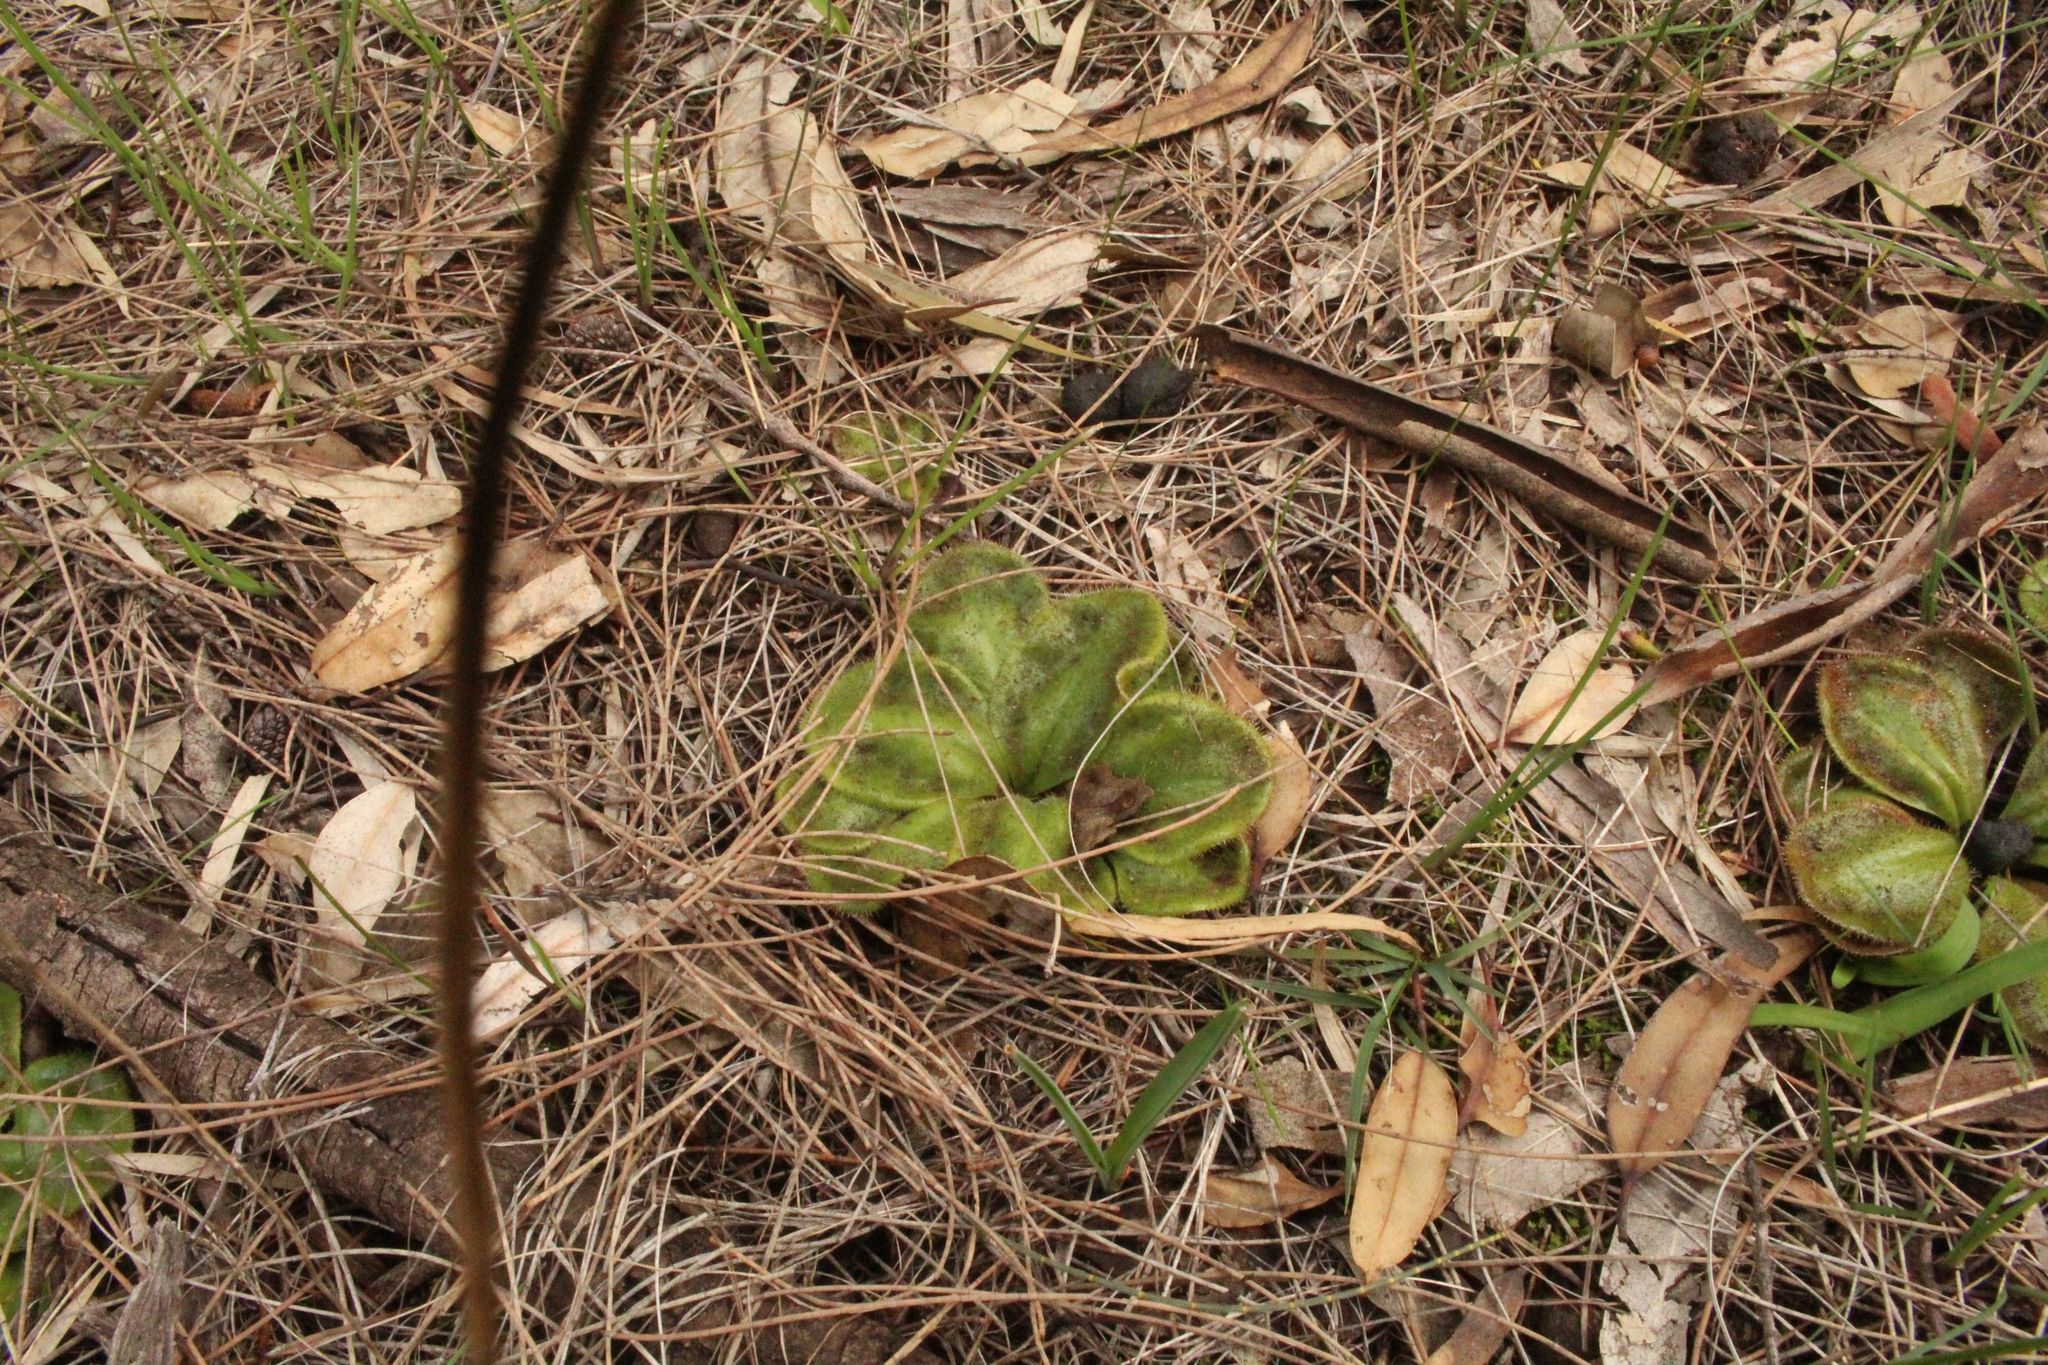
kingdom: Plantae
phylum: Tracheophyta
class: Magnoliopsida
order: Caryophyllales
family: Droseraceae
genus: Drosera
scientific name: Drosera erythrorhiza
